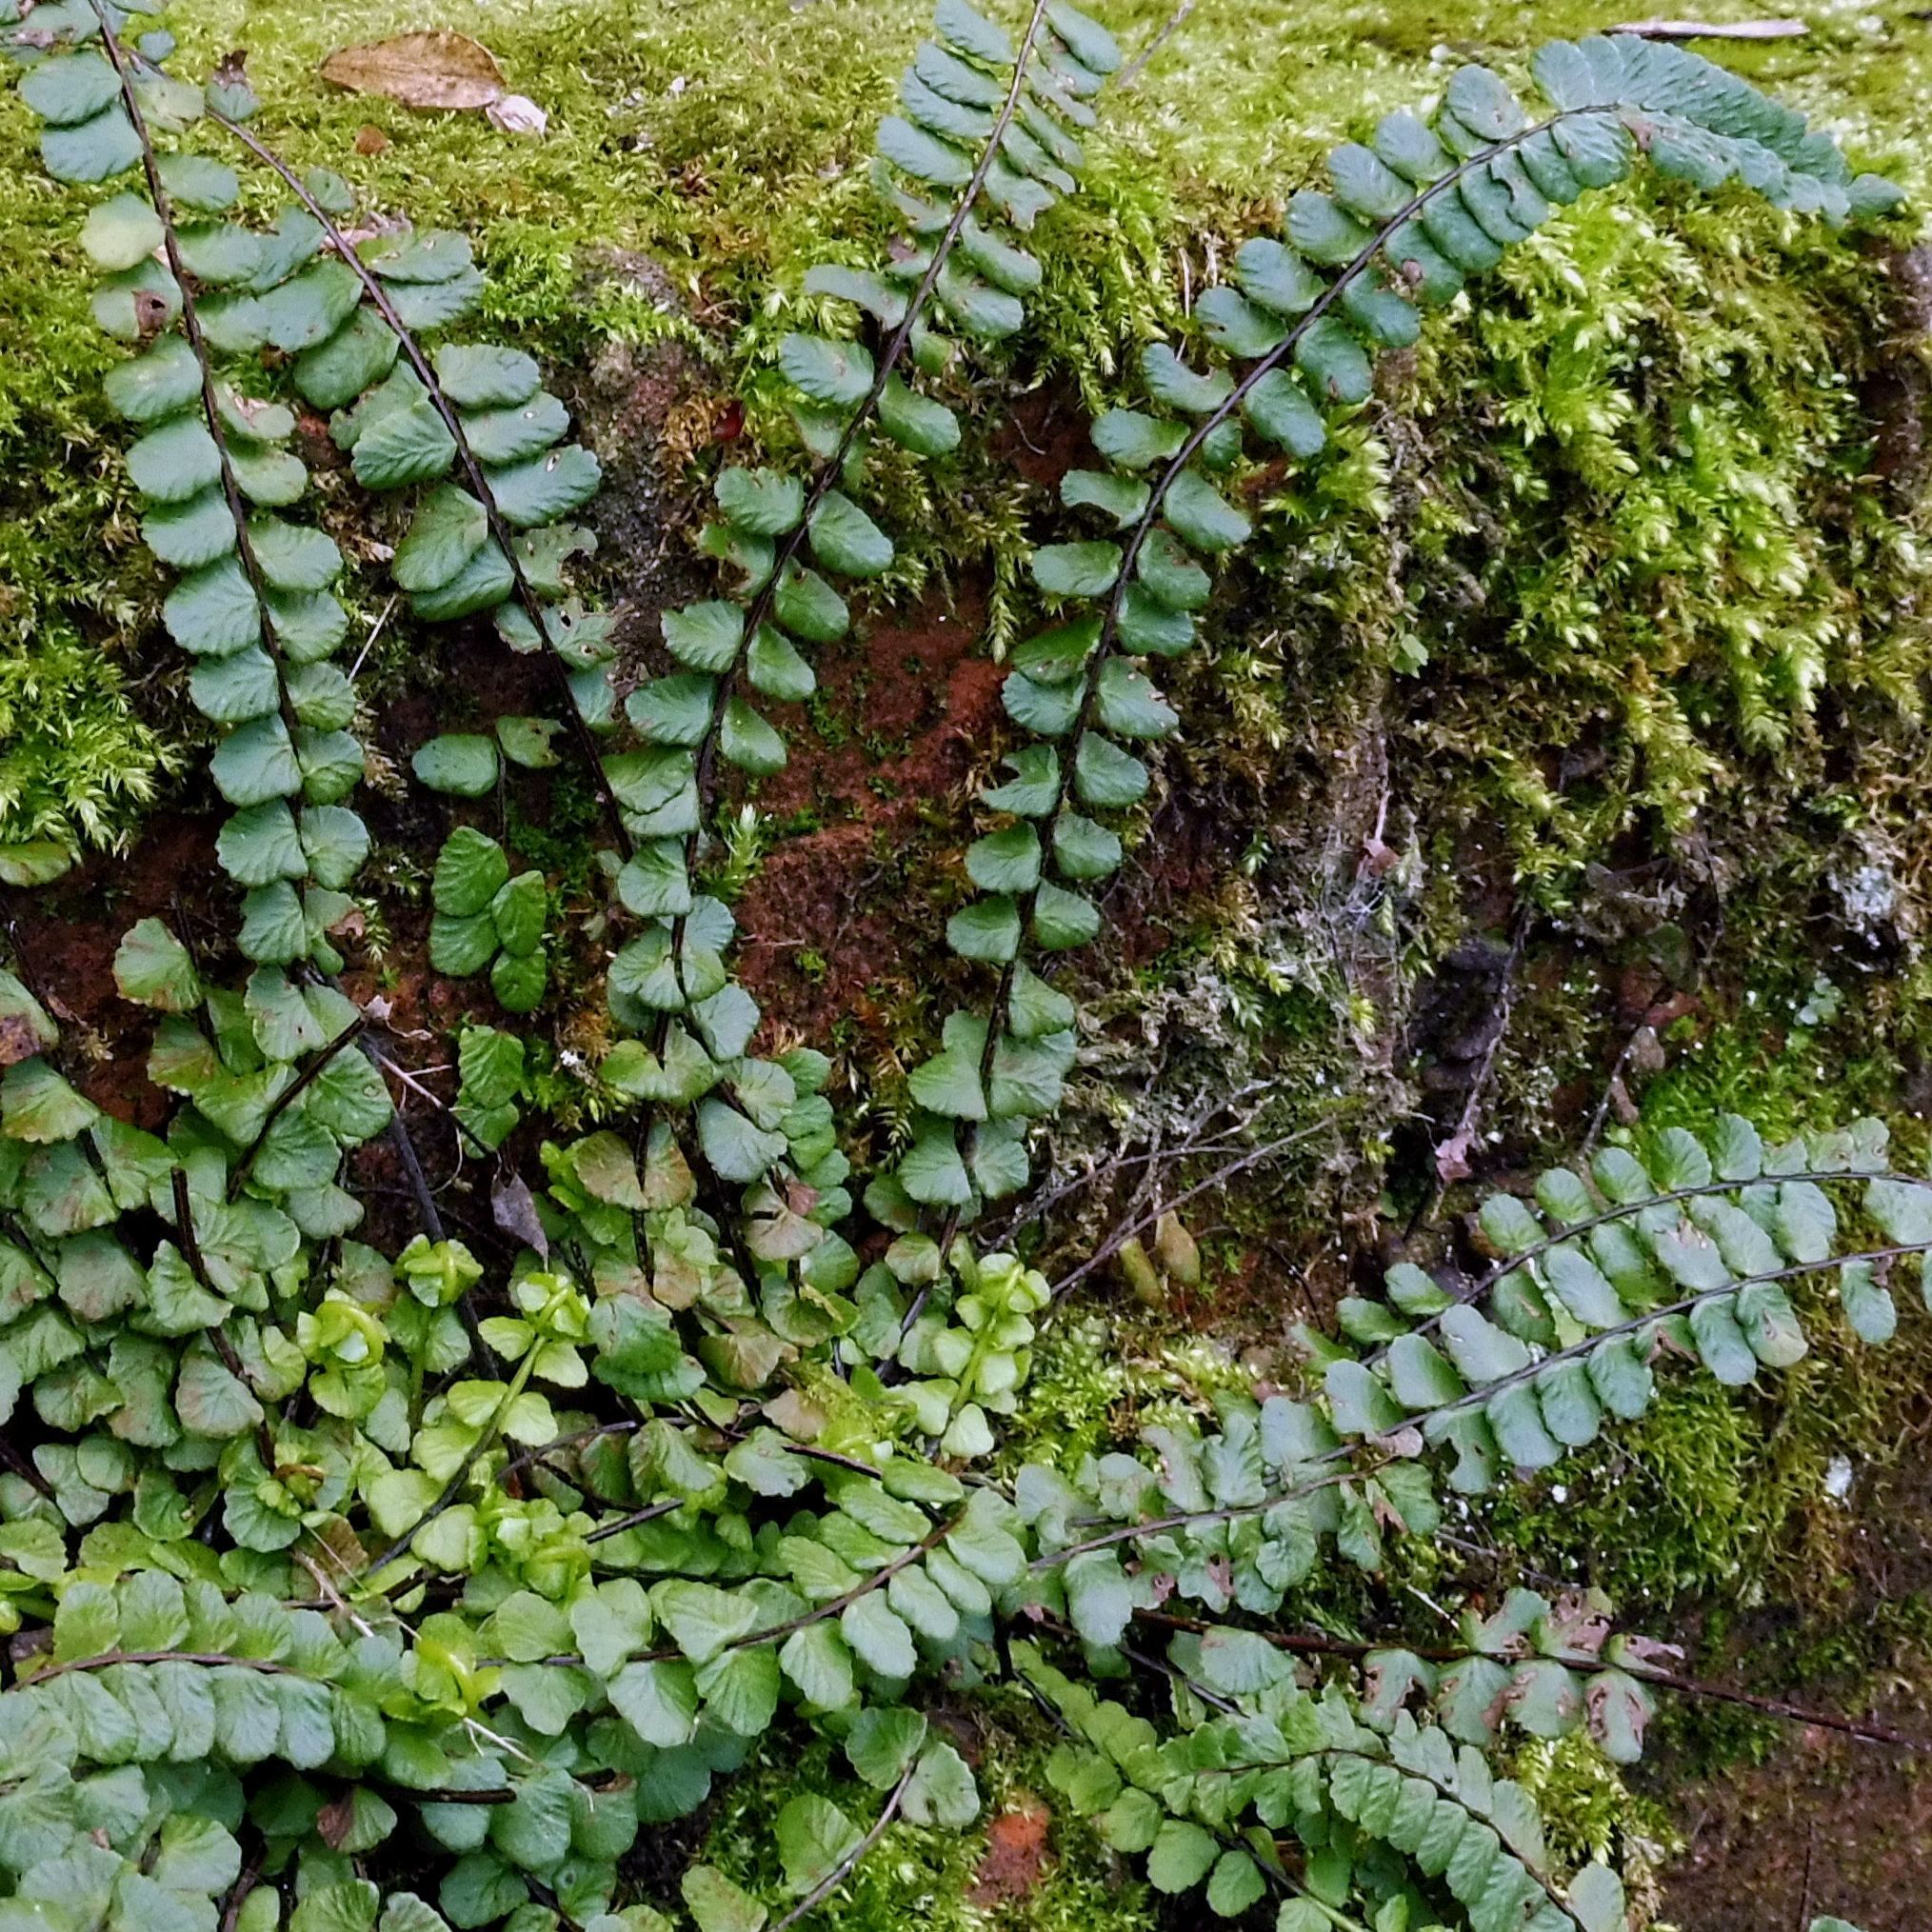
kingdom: Plantae
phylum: Tracheophyta
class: Polypodiopsida
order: Polypodiales
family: Aspleniaceae
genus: Asplenium
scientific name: Asplenium trichomanes
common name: Maidenhair spleenwort
